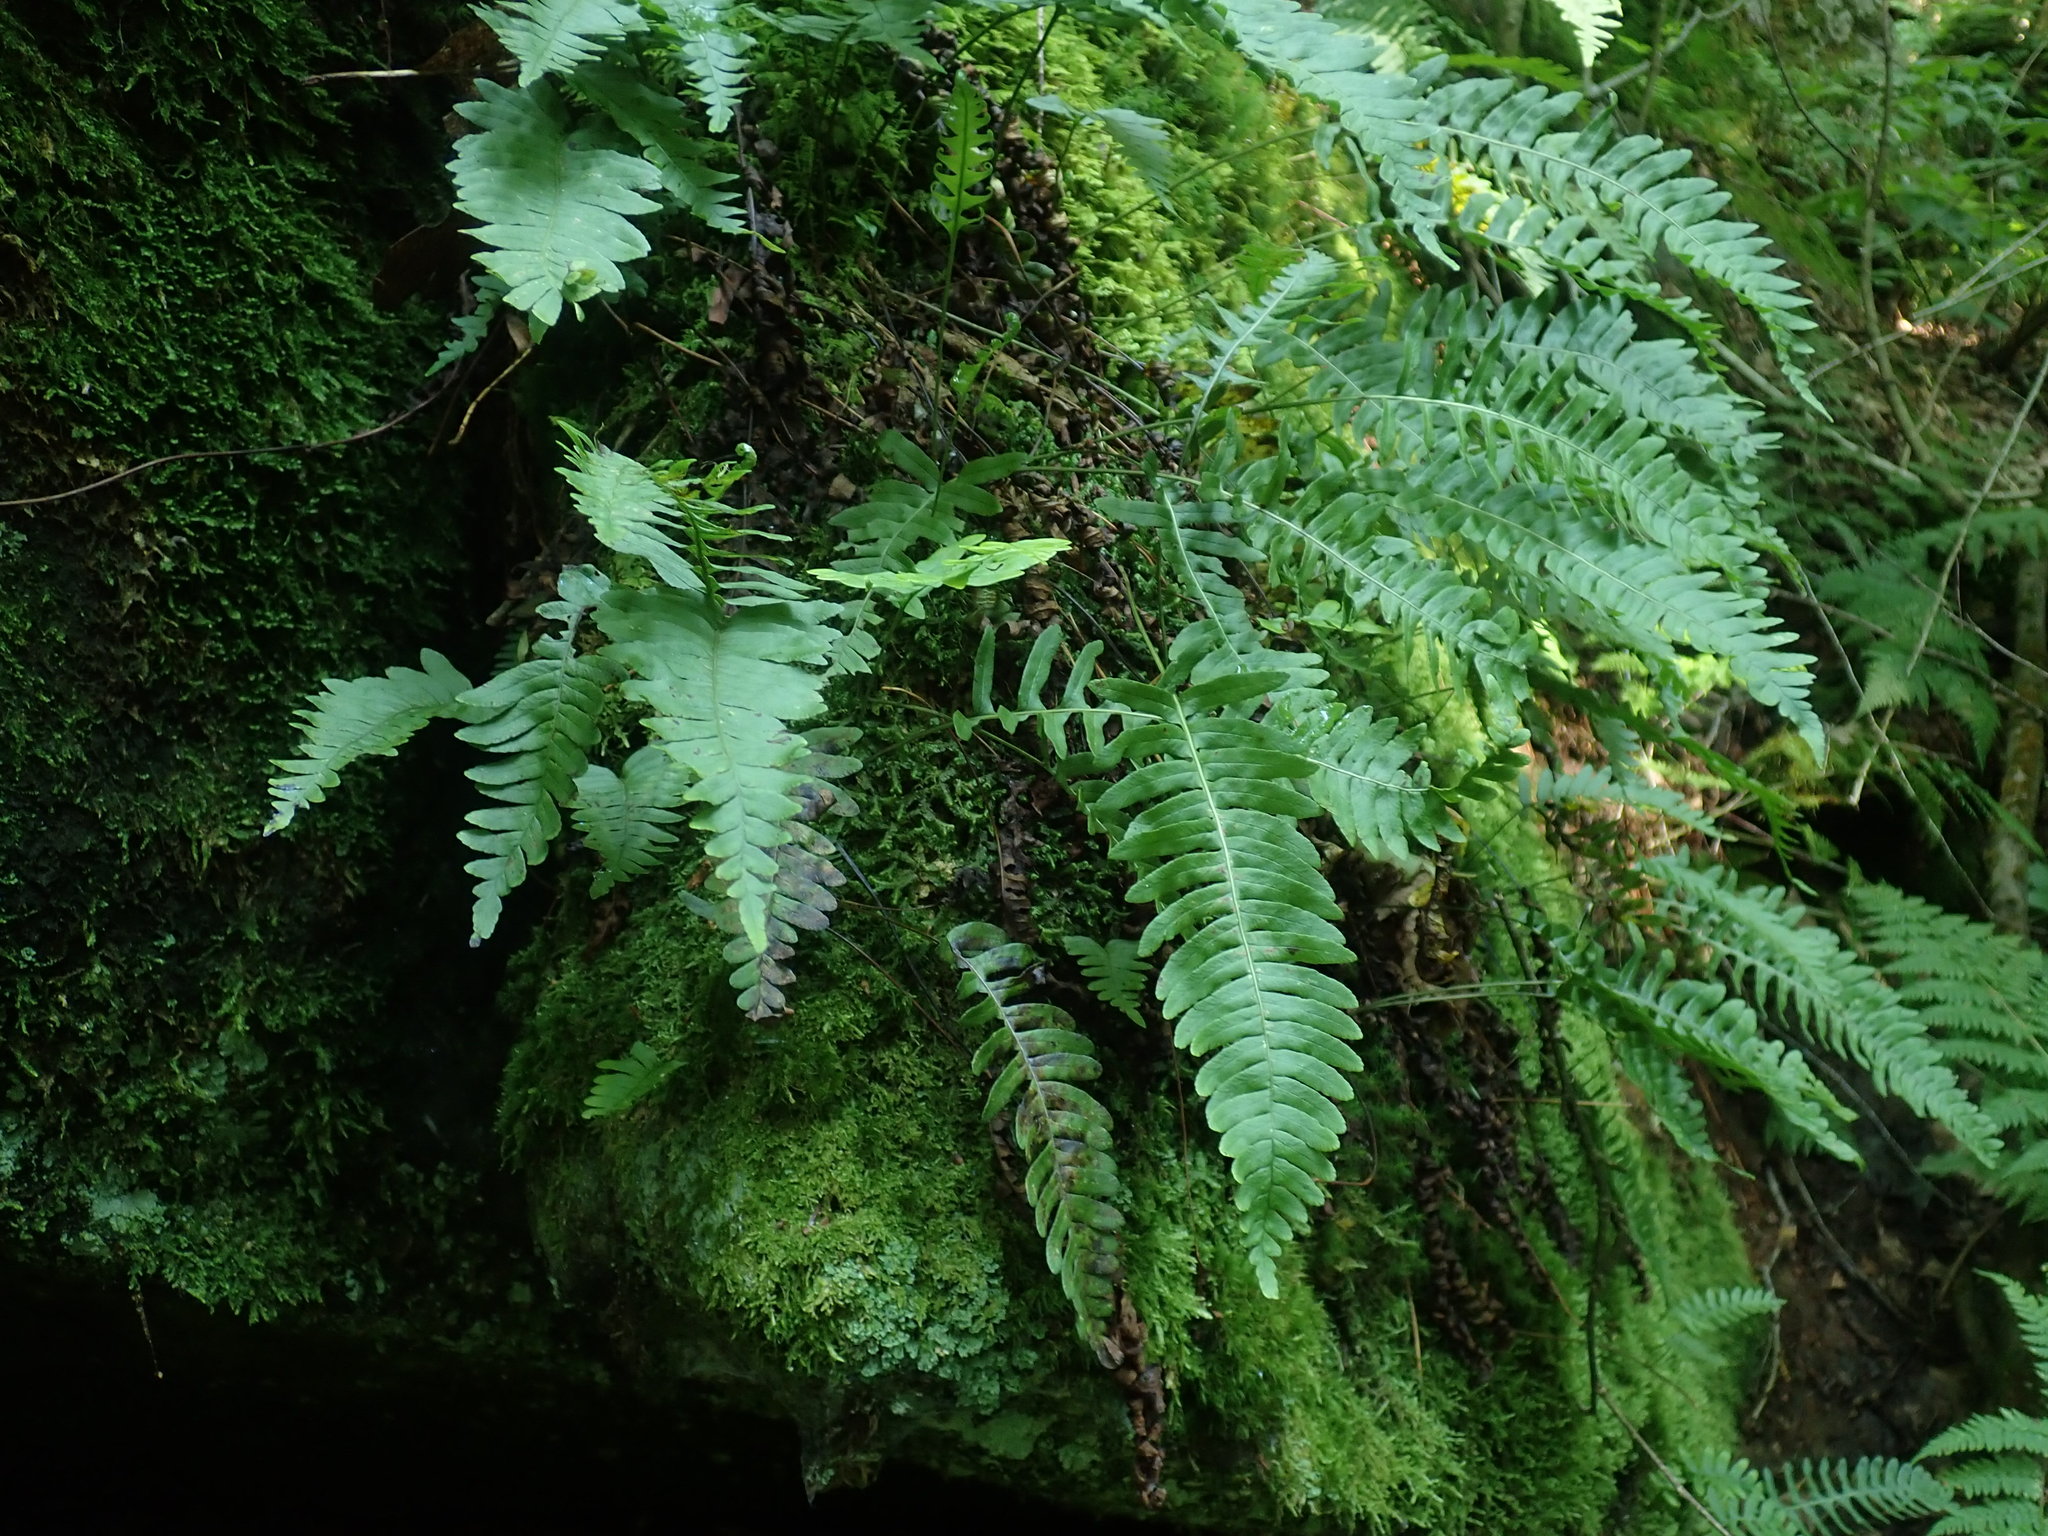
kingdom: Plantae
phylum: Tracheophyta
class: Polypodiopsida
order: Polypodiales
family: Polypodiaceae
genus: Polypodium
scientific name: Polypodium
